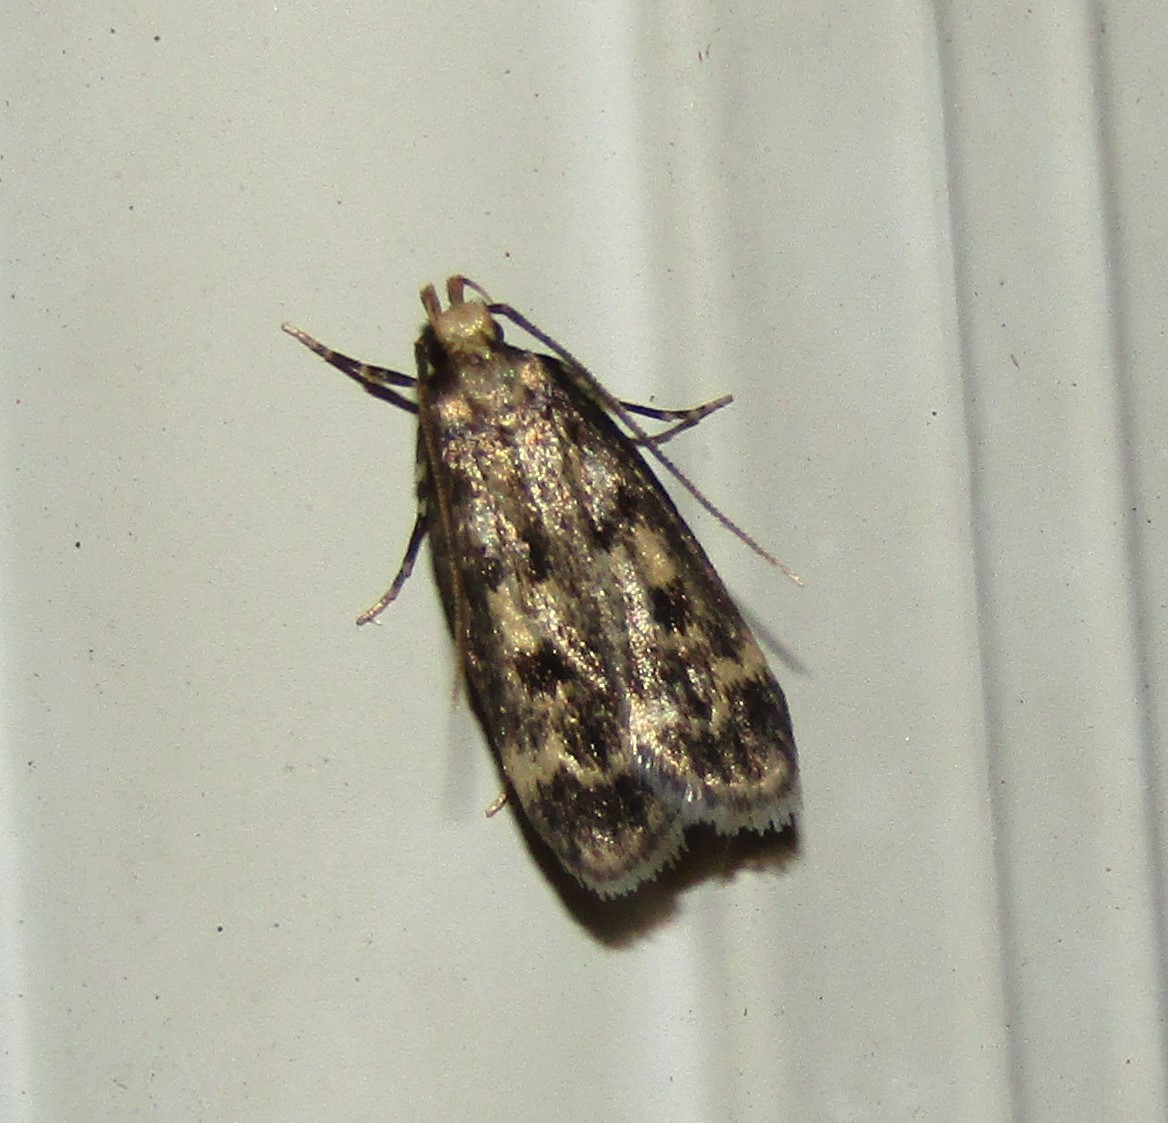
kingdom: Animalia
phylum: Arthropoda
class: Insecta
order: Lepidoptera
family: Lecithoceridae
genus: Martyringa
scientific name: Martyringa latipennis
